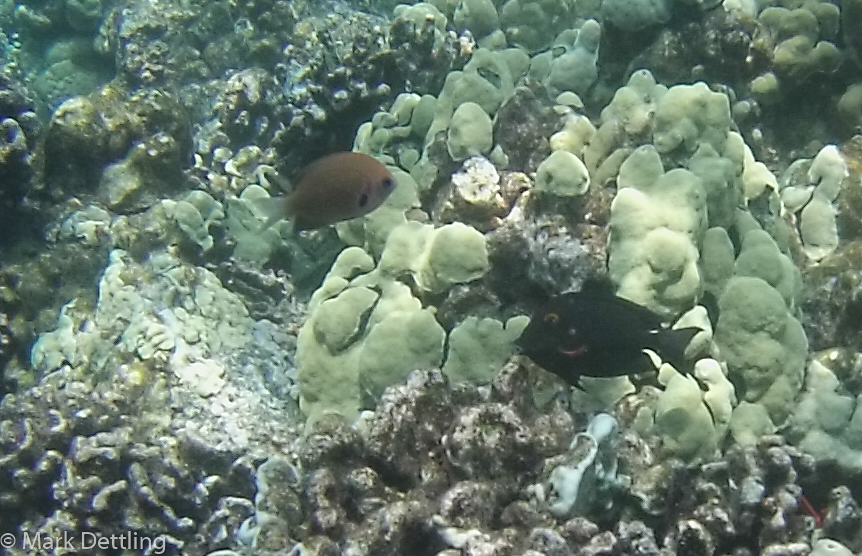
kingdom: Animalia
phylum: Chordata
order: Perciformes
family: Pomacentridae
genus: Pycnochromis
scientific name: Pycnochromis pacifica
